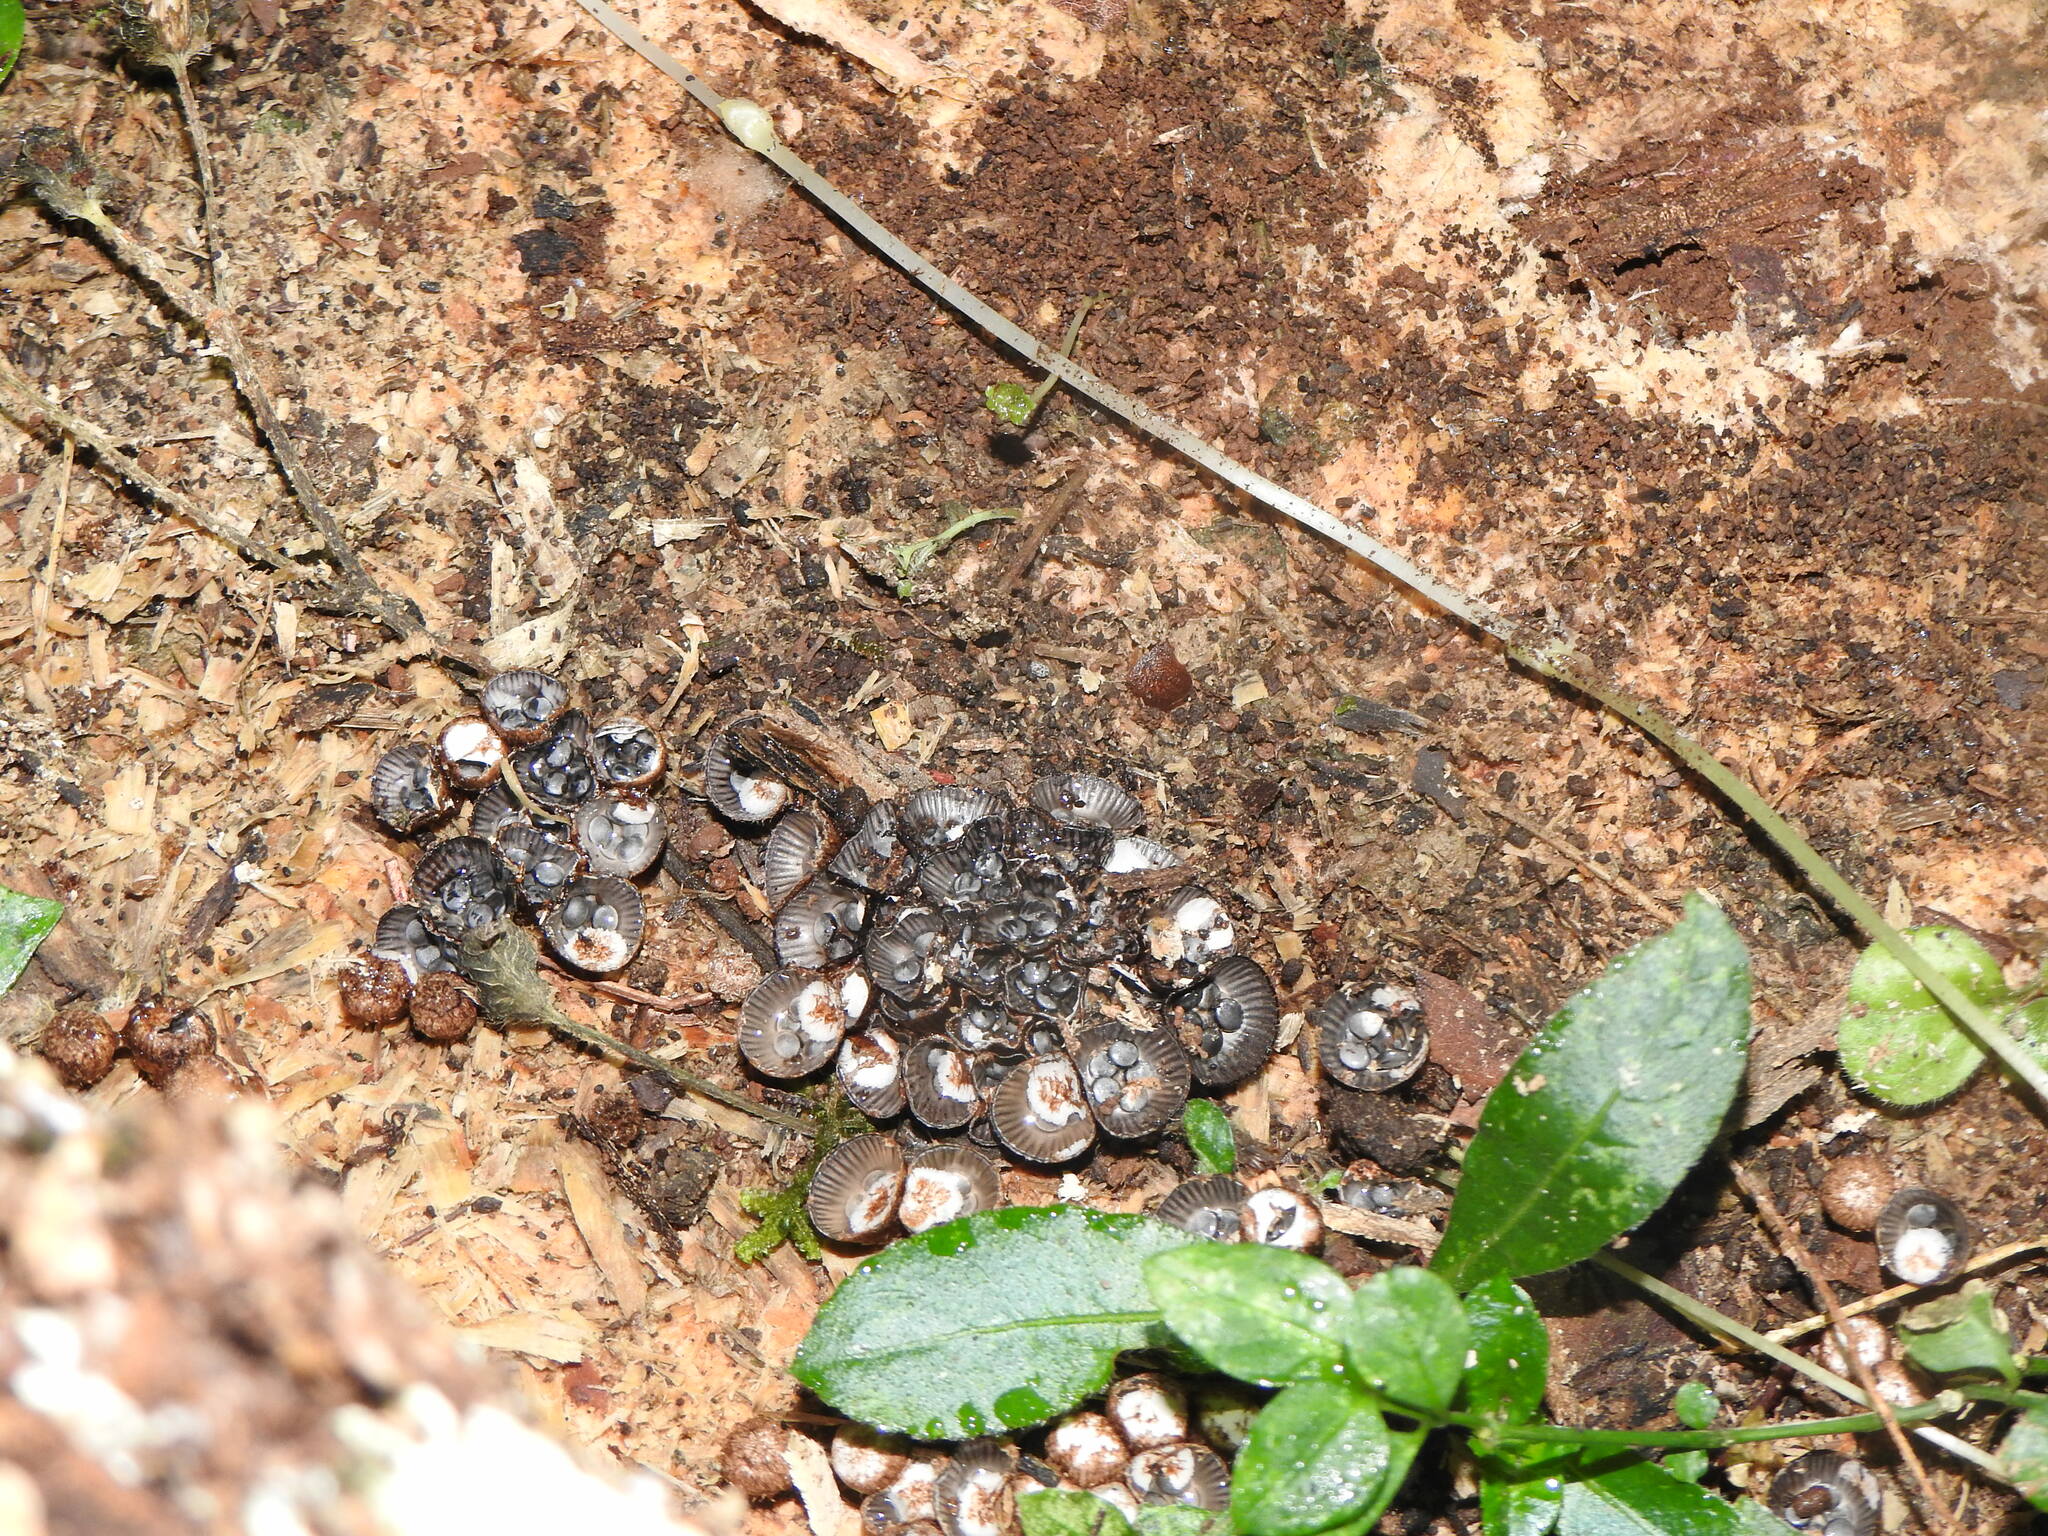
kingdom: Fungi
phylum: Basidiomycota
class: Agaricomycetes
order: Agaricales
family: Agaricaceae
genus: Cyathus
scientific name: Cyathus stercoreus
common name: Dung bird's nest
